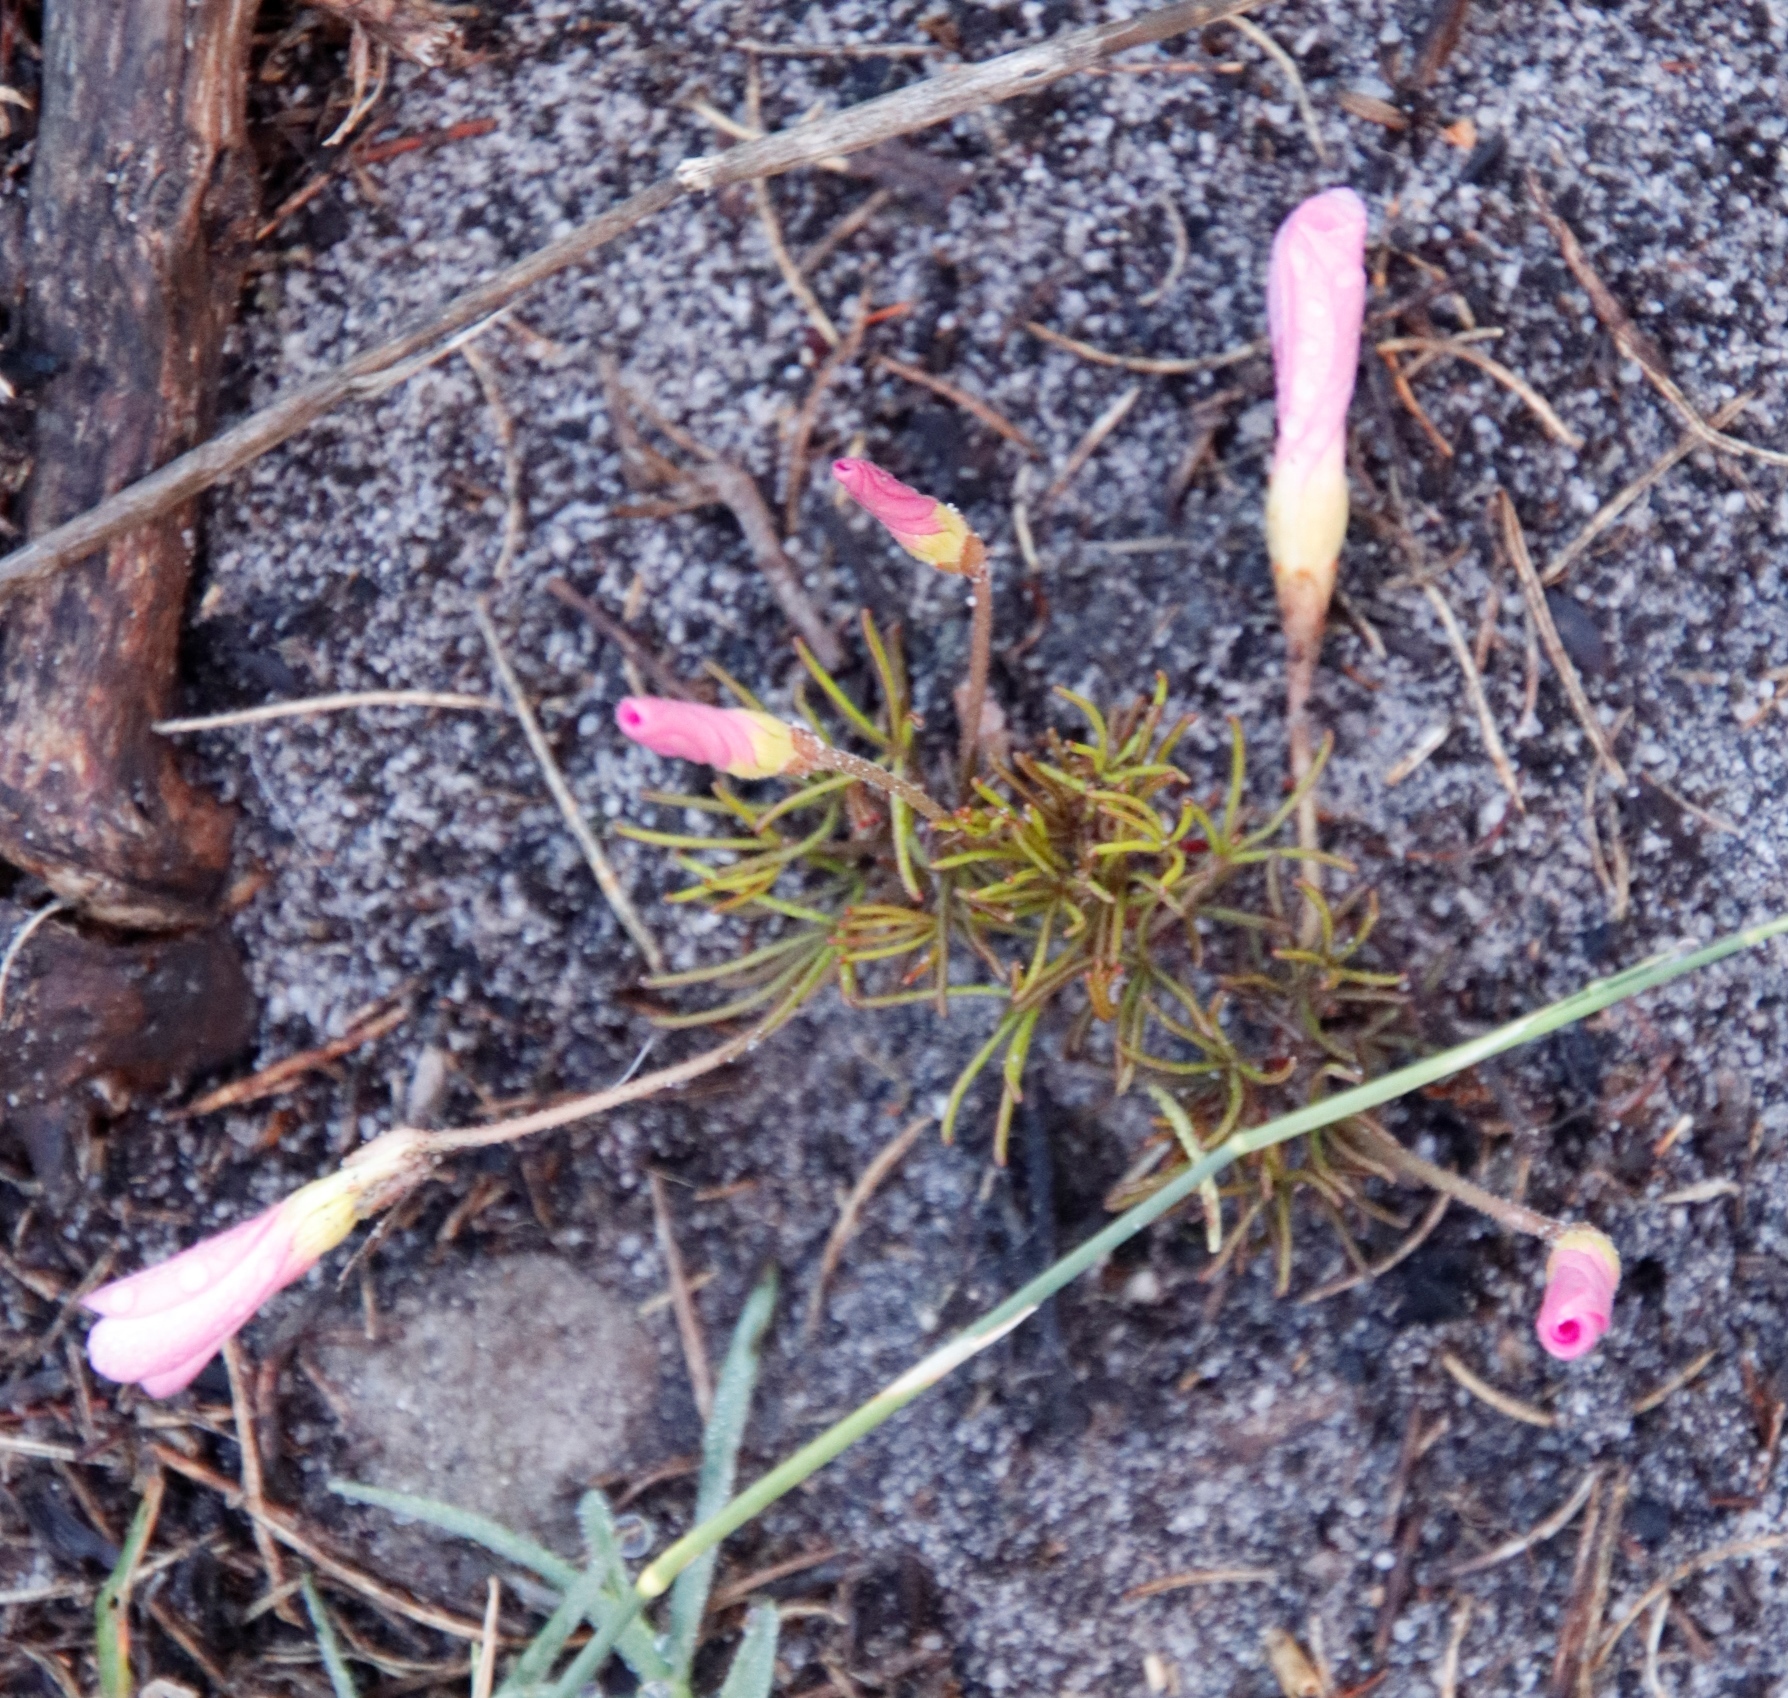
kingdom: Plantae
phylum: Tracheophyta
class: Magnoliopsida
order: Oxalidales
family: Oxalidaceae
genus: Oxalis
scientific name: Oxalis polyphylla
